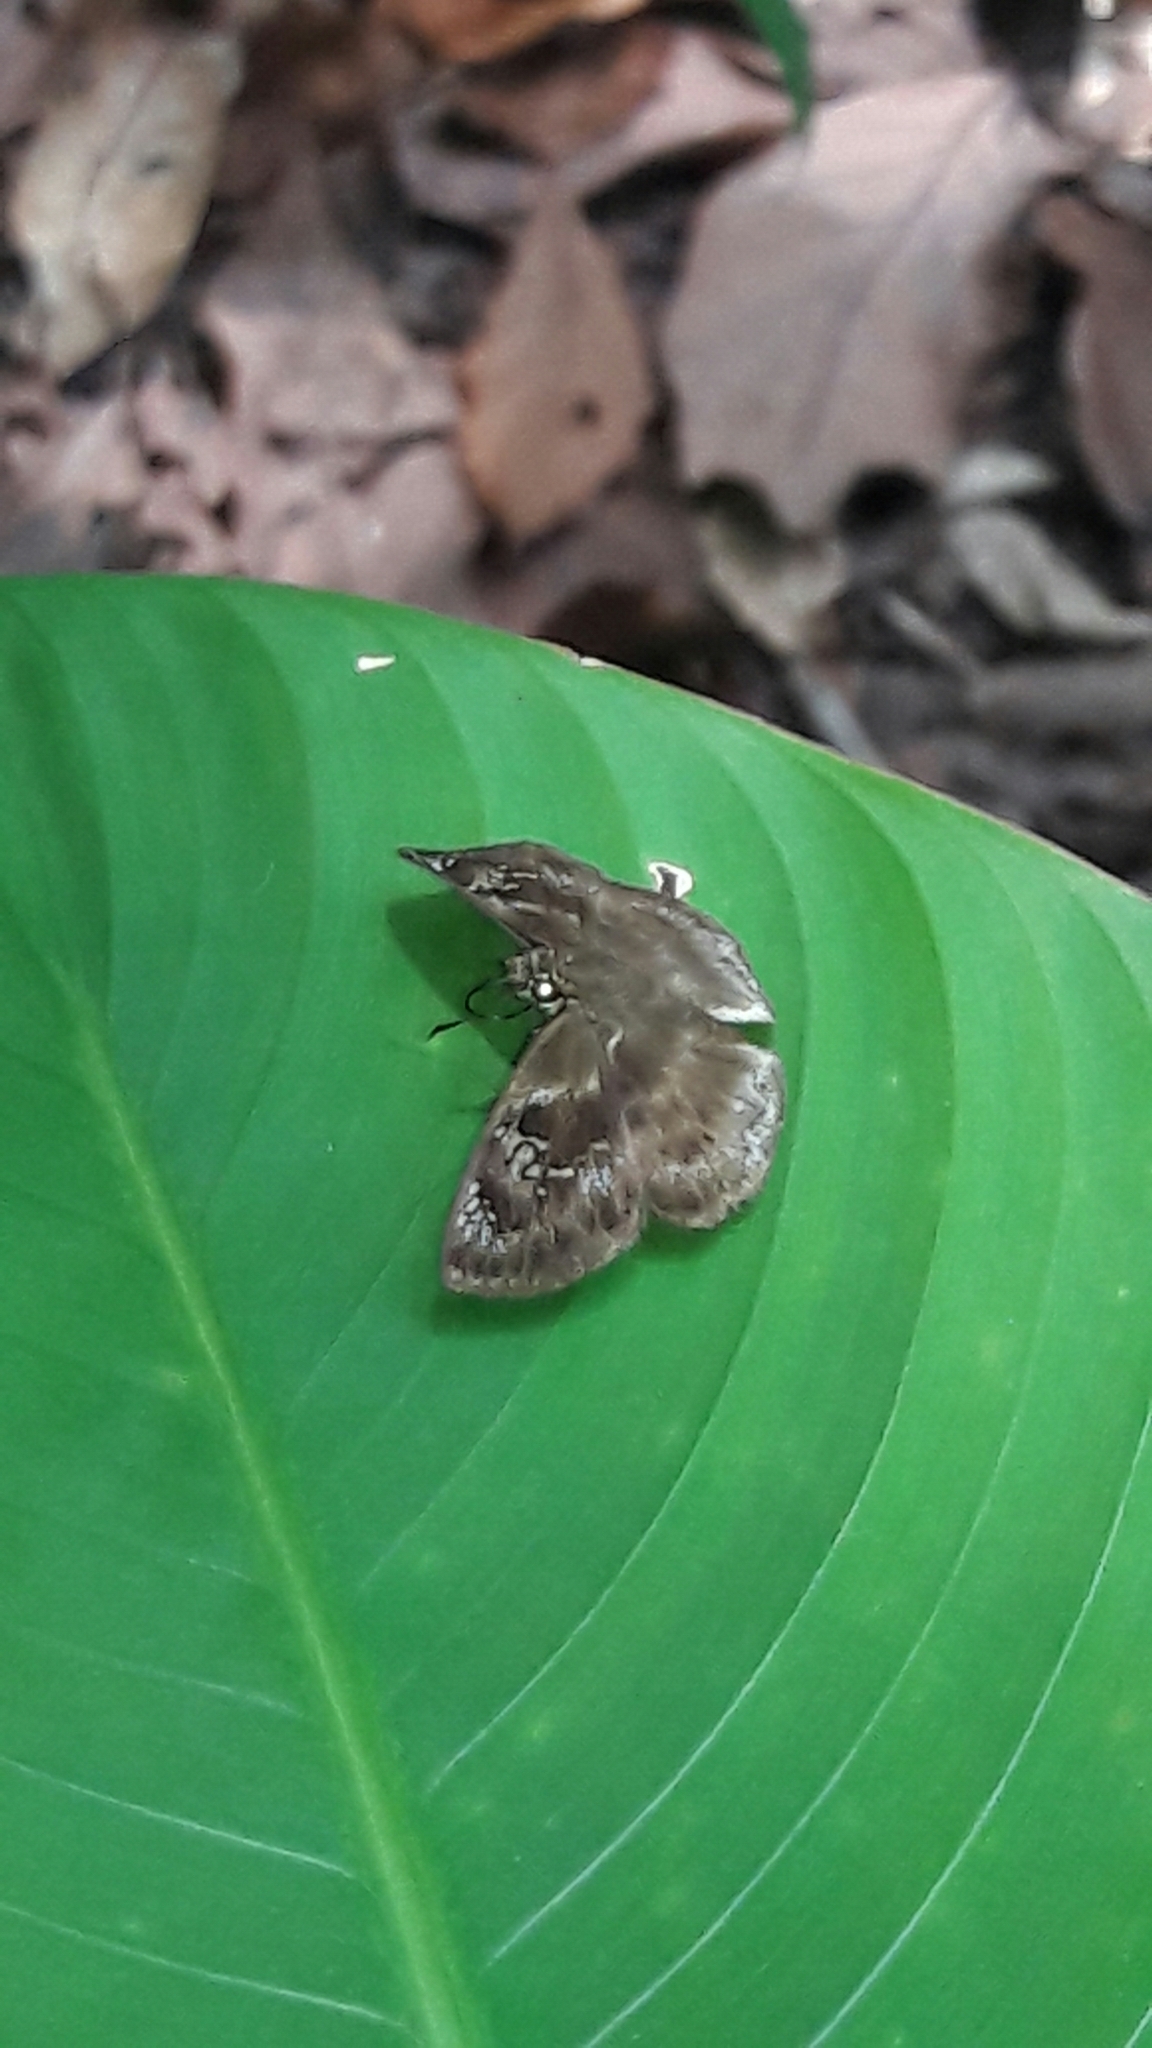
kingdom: Animalia
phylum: Arthropoda
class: Insecta
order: Lepidoptera
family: Hesperiidae
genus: Quadrus
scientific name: Quadrus ulucida
